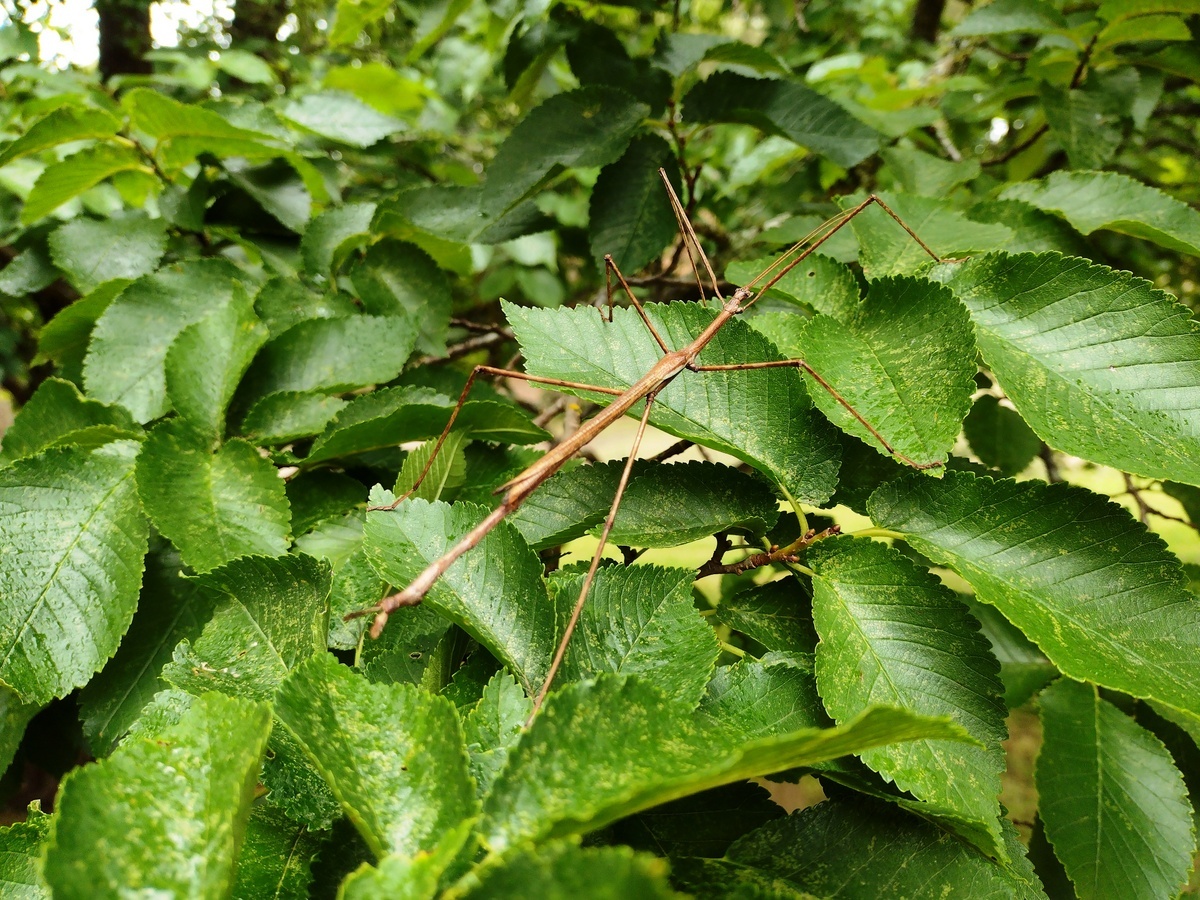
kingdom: Animalia
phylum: Arthropoda
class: Insecta
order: Phasmida
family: Phasmatidae
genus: Ctenomorpha
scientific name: Ctenomorpha marginipennis
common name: Margined-winged stick-insect
